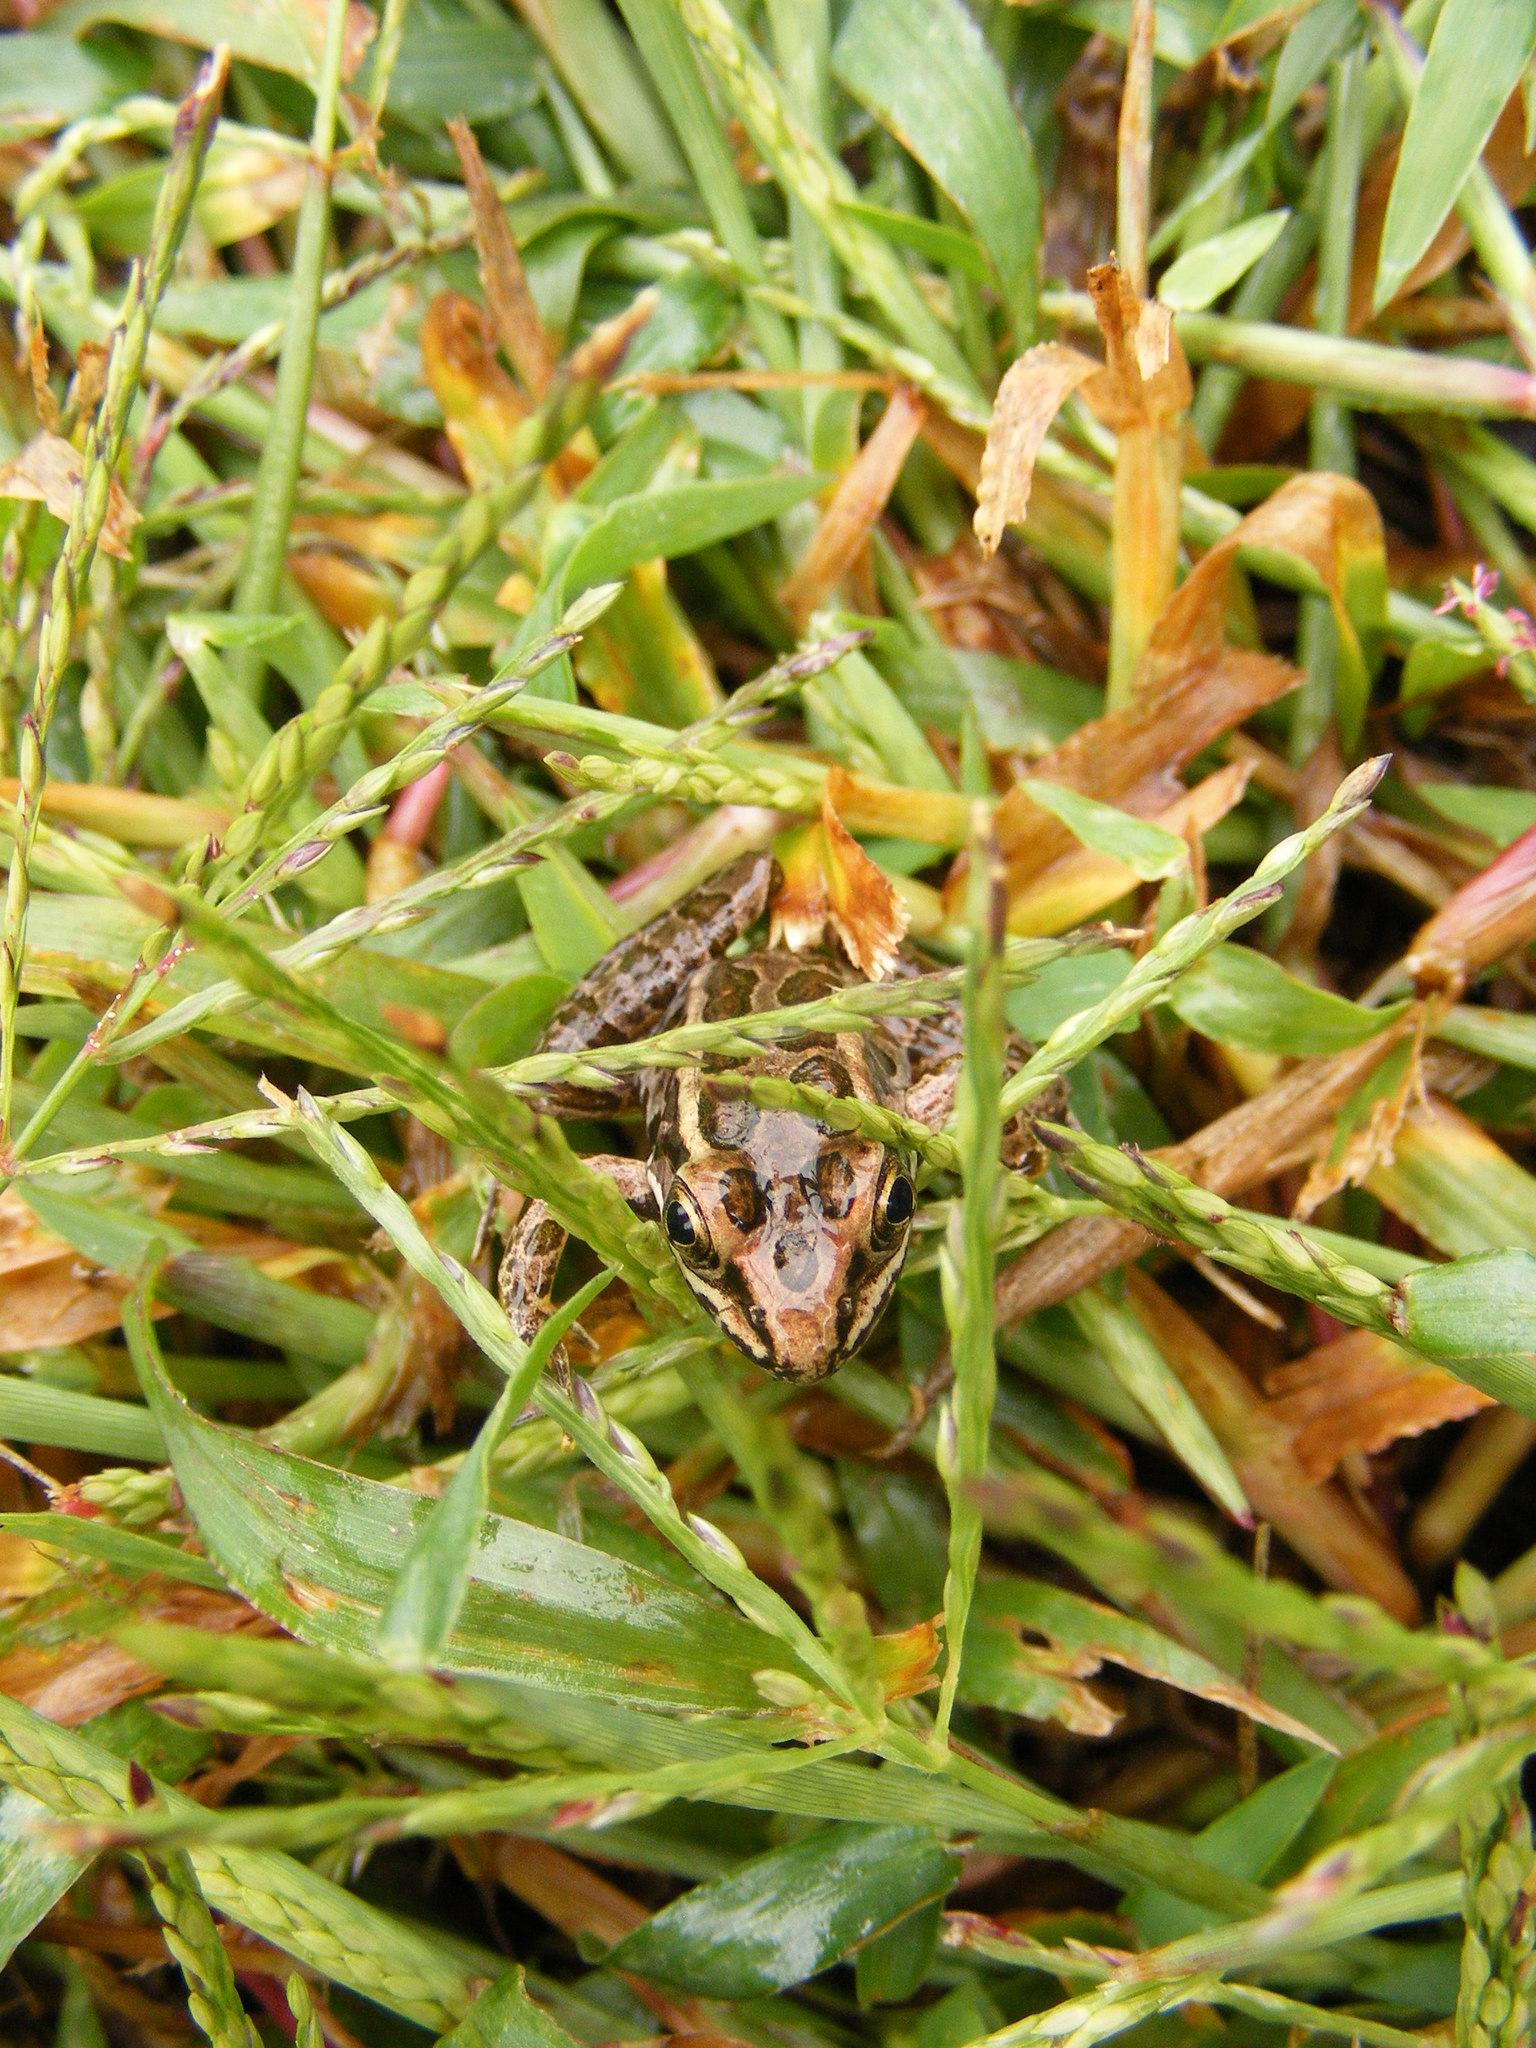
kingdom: Animalia
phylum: Chordata
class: Amphibia
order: Anura
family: Ranidae
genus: Lithobates
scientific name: Lithobates palustris
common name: Pickerel frog
